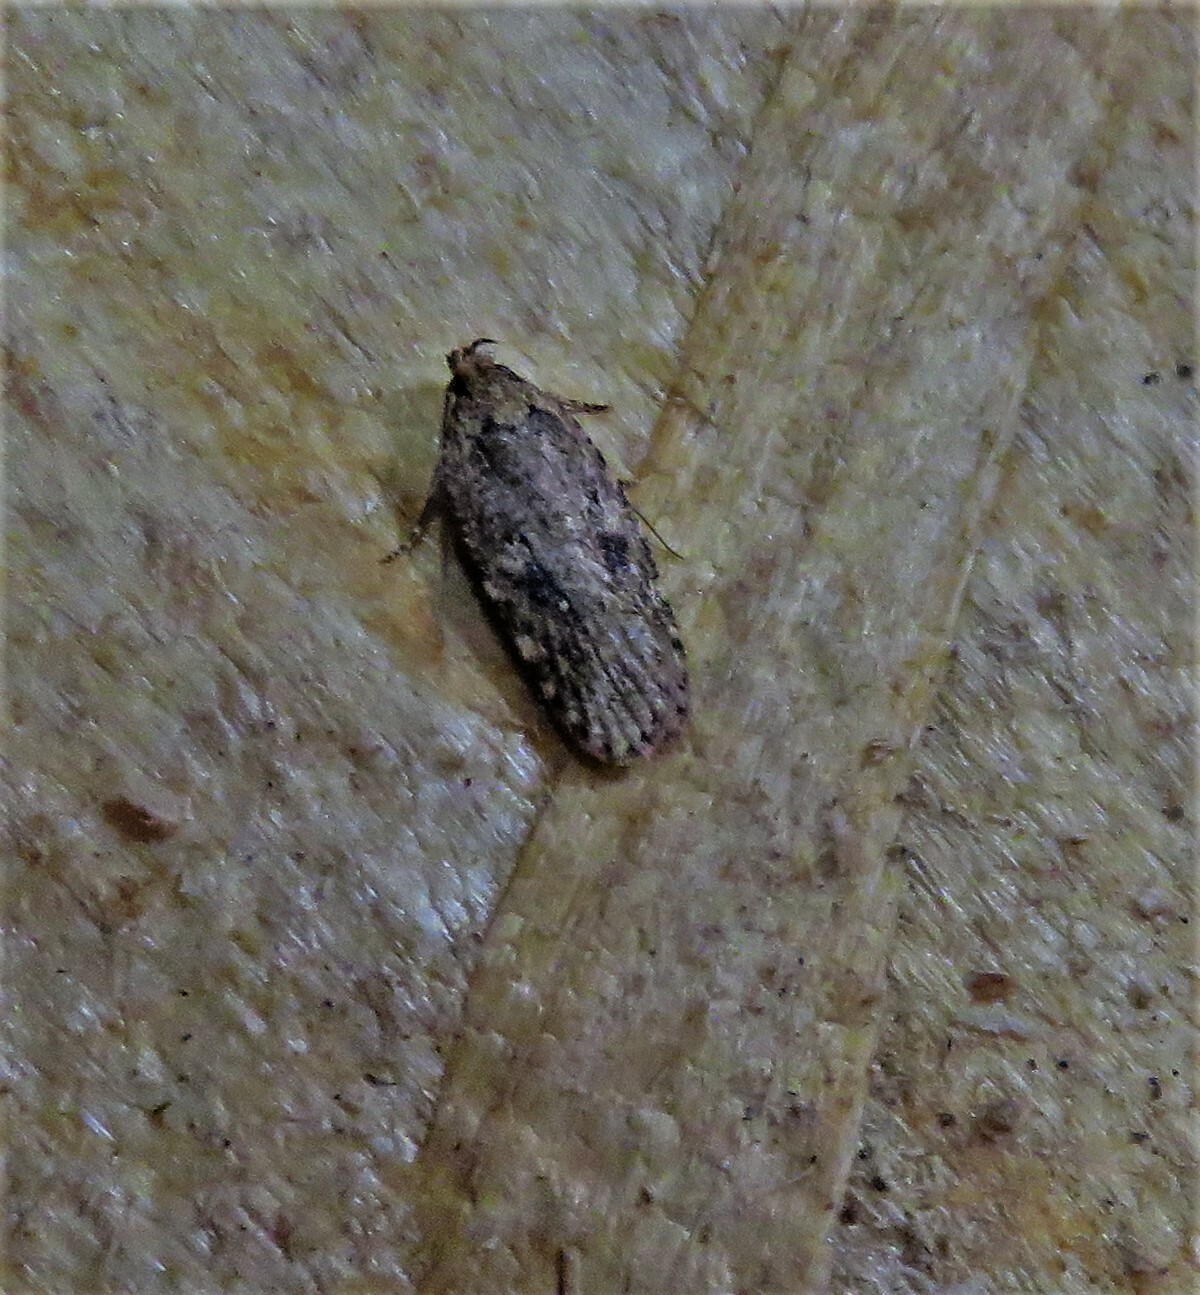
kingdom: Animalia
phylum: Arthropoda
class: Insecta
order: Lepidoptera
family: Depressariidae
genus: Agonopterix
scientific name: Agonopterix pulvipennella
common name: Goldenrod leafffolder
